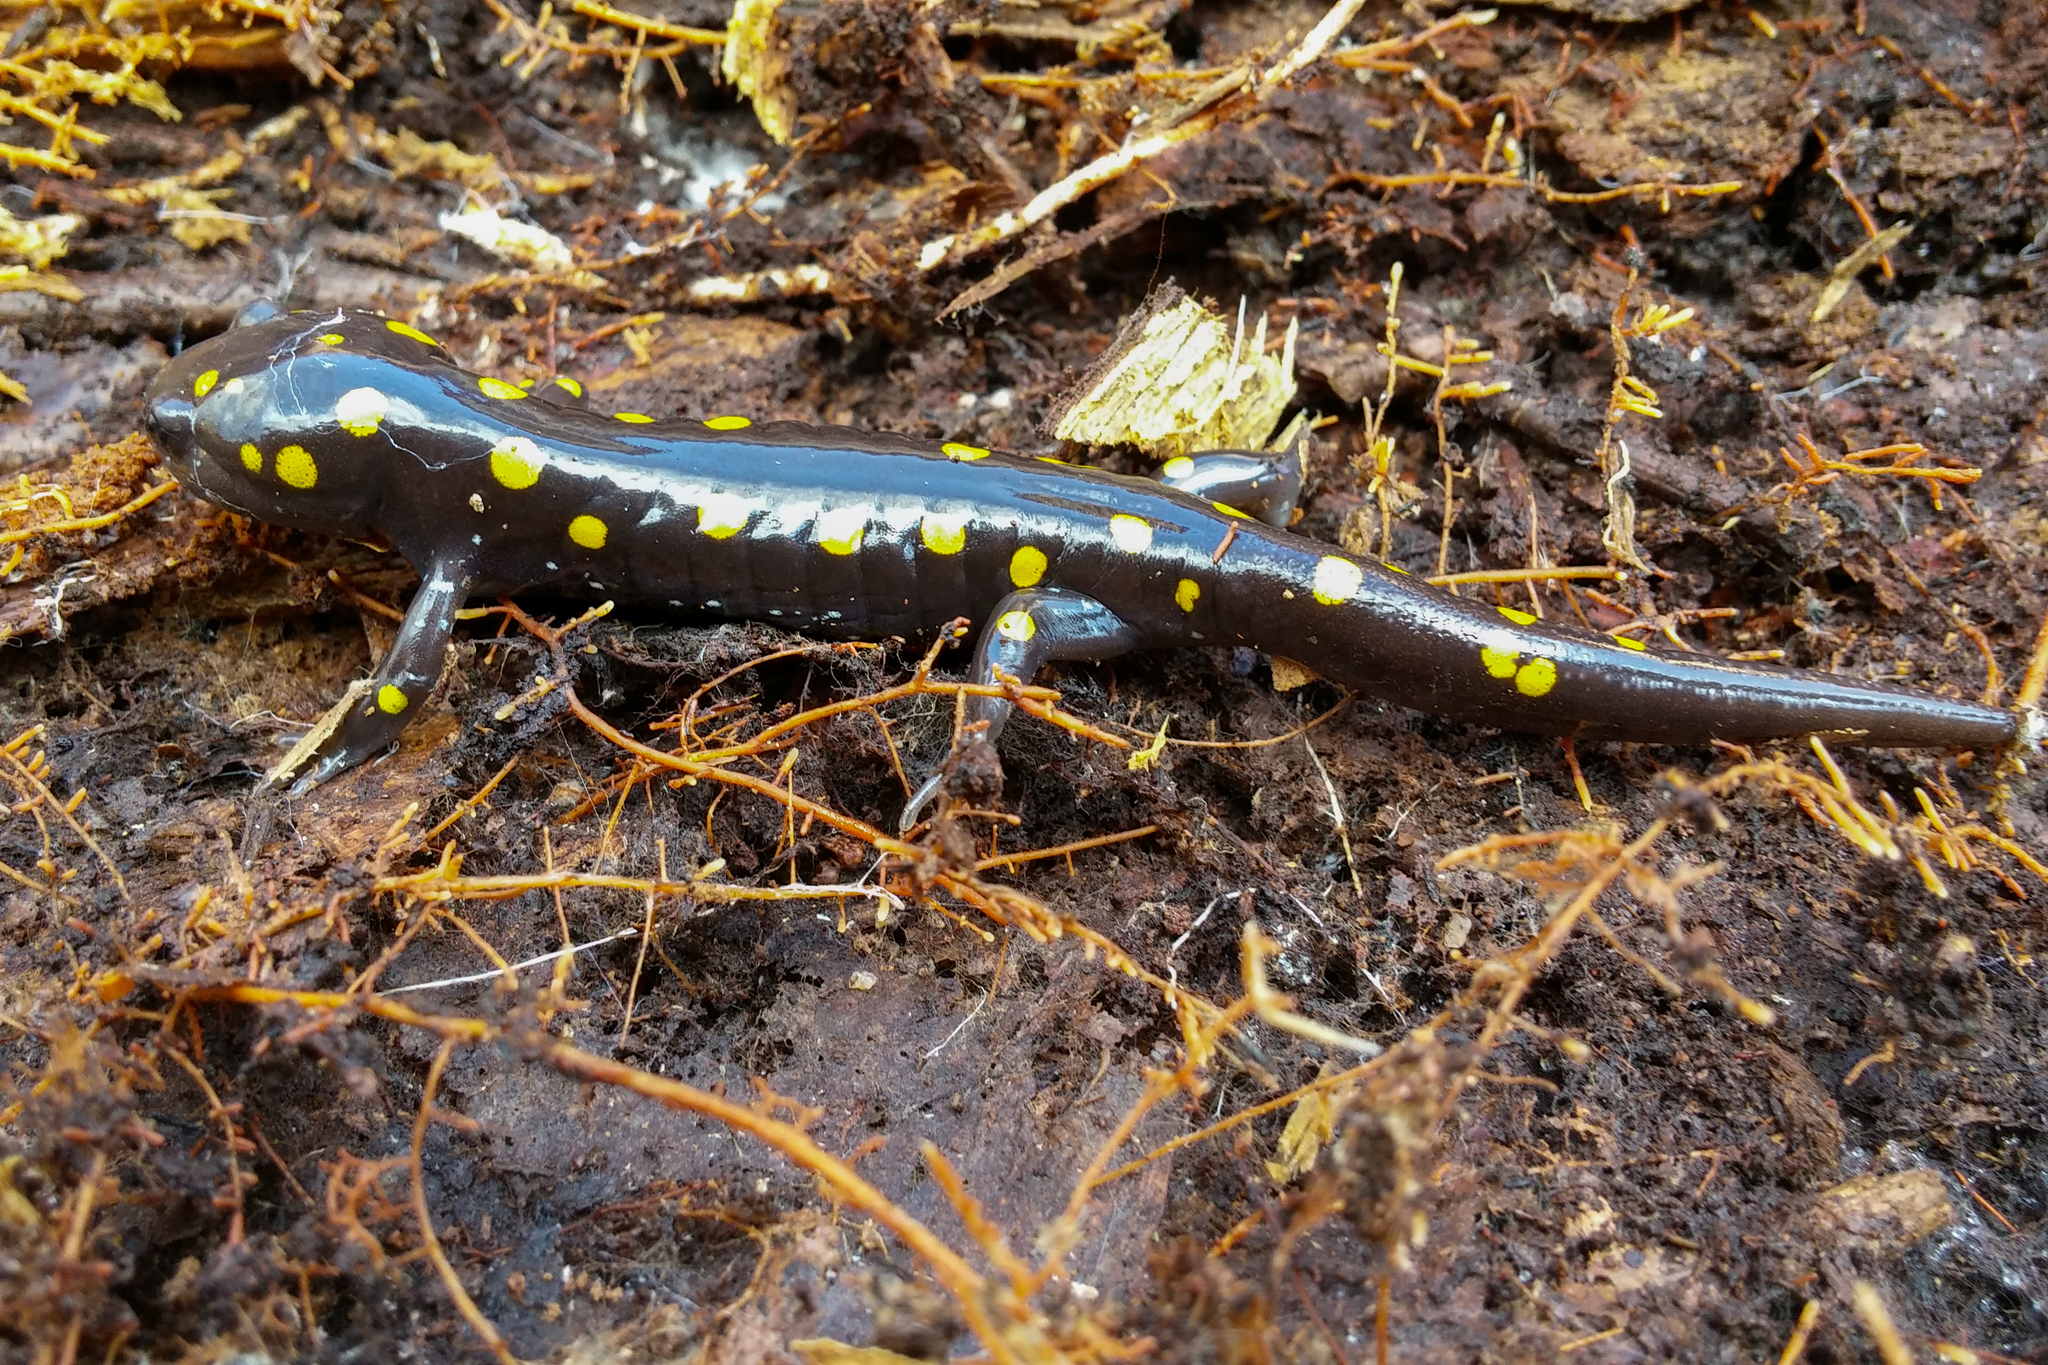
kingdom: Animalia
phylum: Chordata
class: Amphibia
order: Caudata
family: Ambystomatidae
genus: Ambystoma
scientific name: Ambystoma maculatum
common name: Spotted salamander
